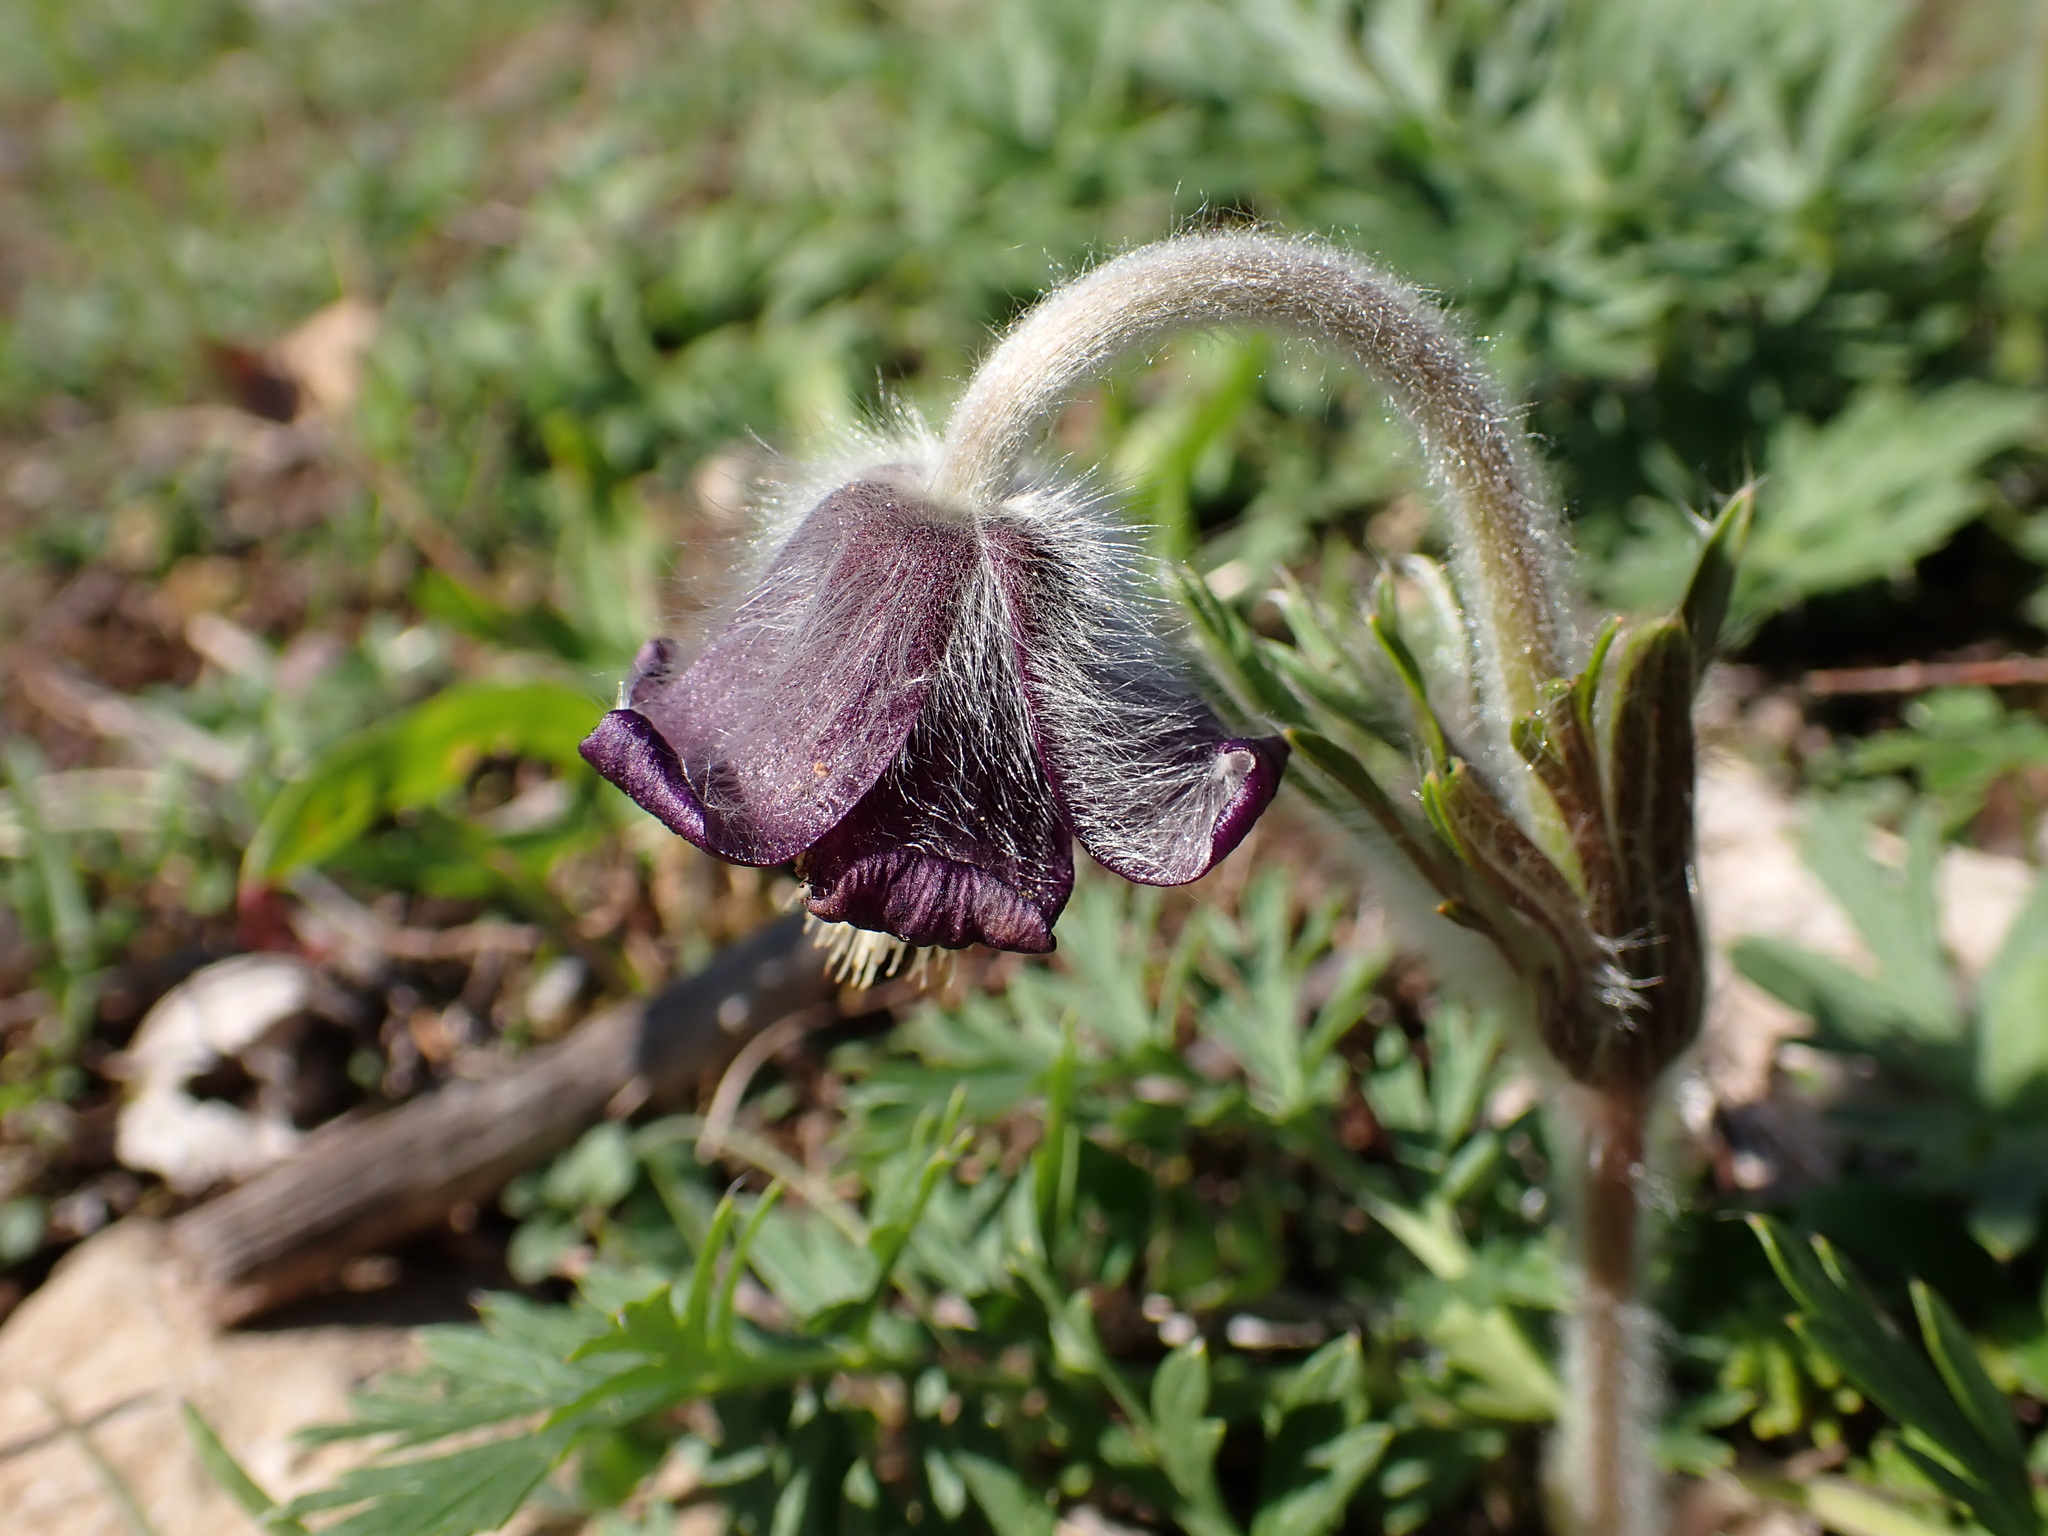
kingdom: Plantae
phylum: Tracheophyta
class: Magnoliopsida
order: Ranunculales
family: Ranunculaceae
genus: Pulsatilla
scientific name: Pulsatilla pratensis
